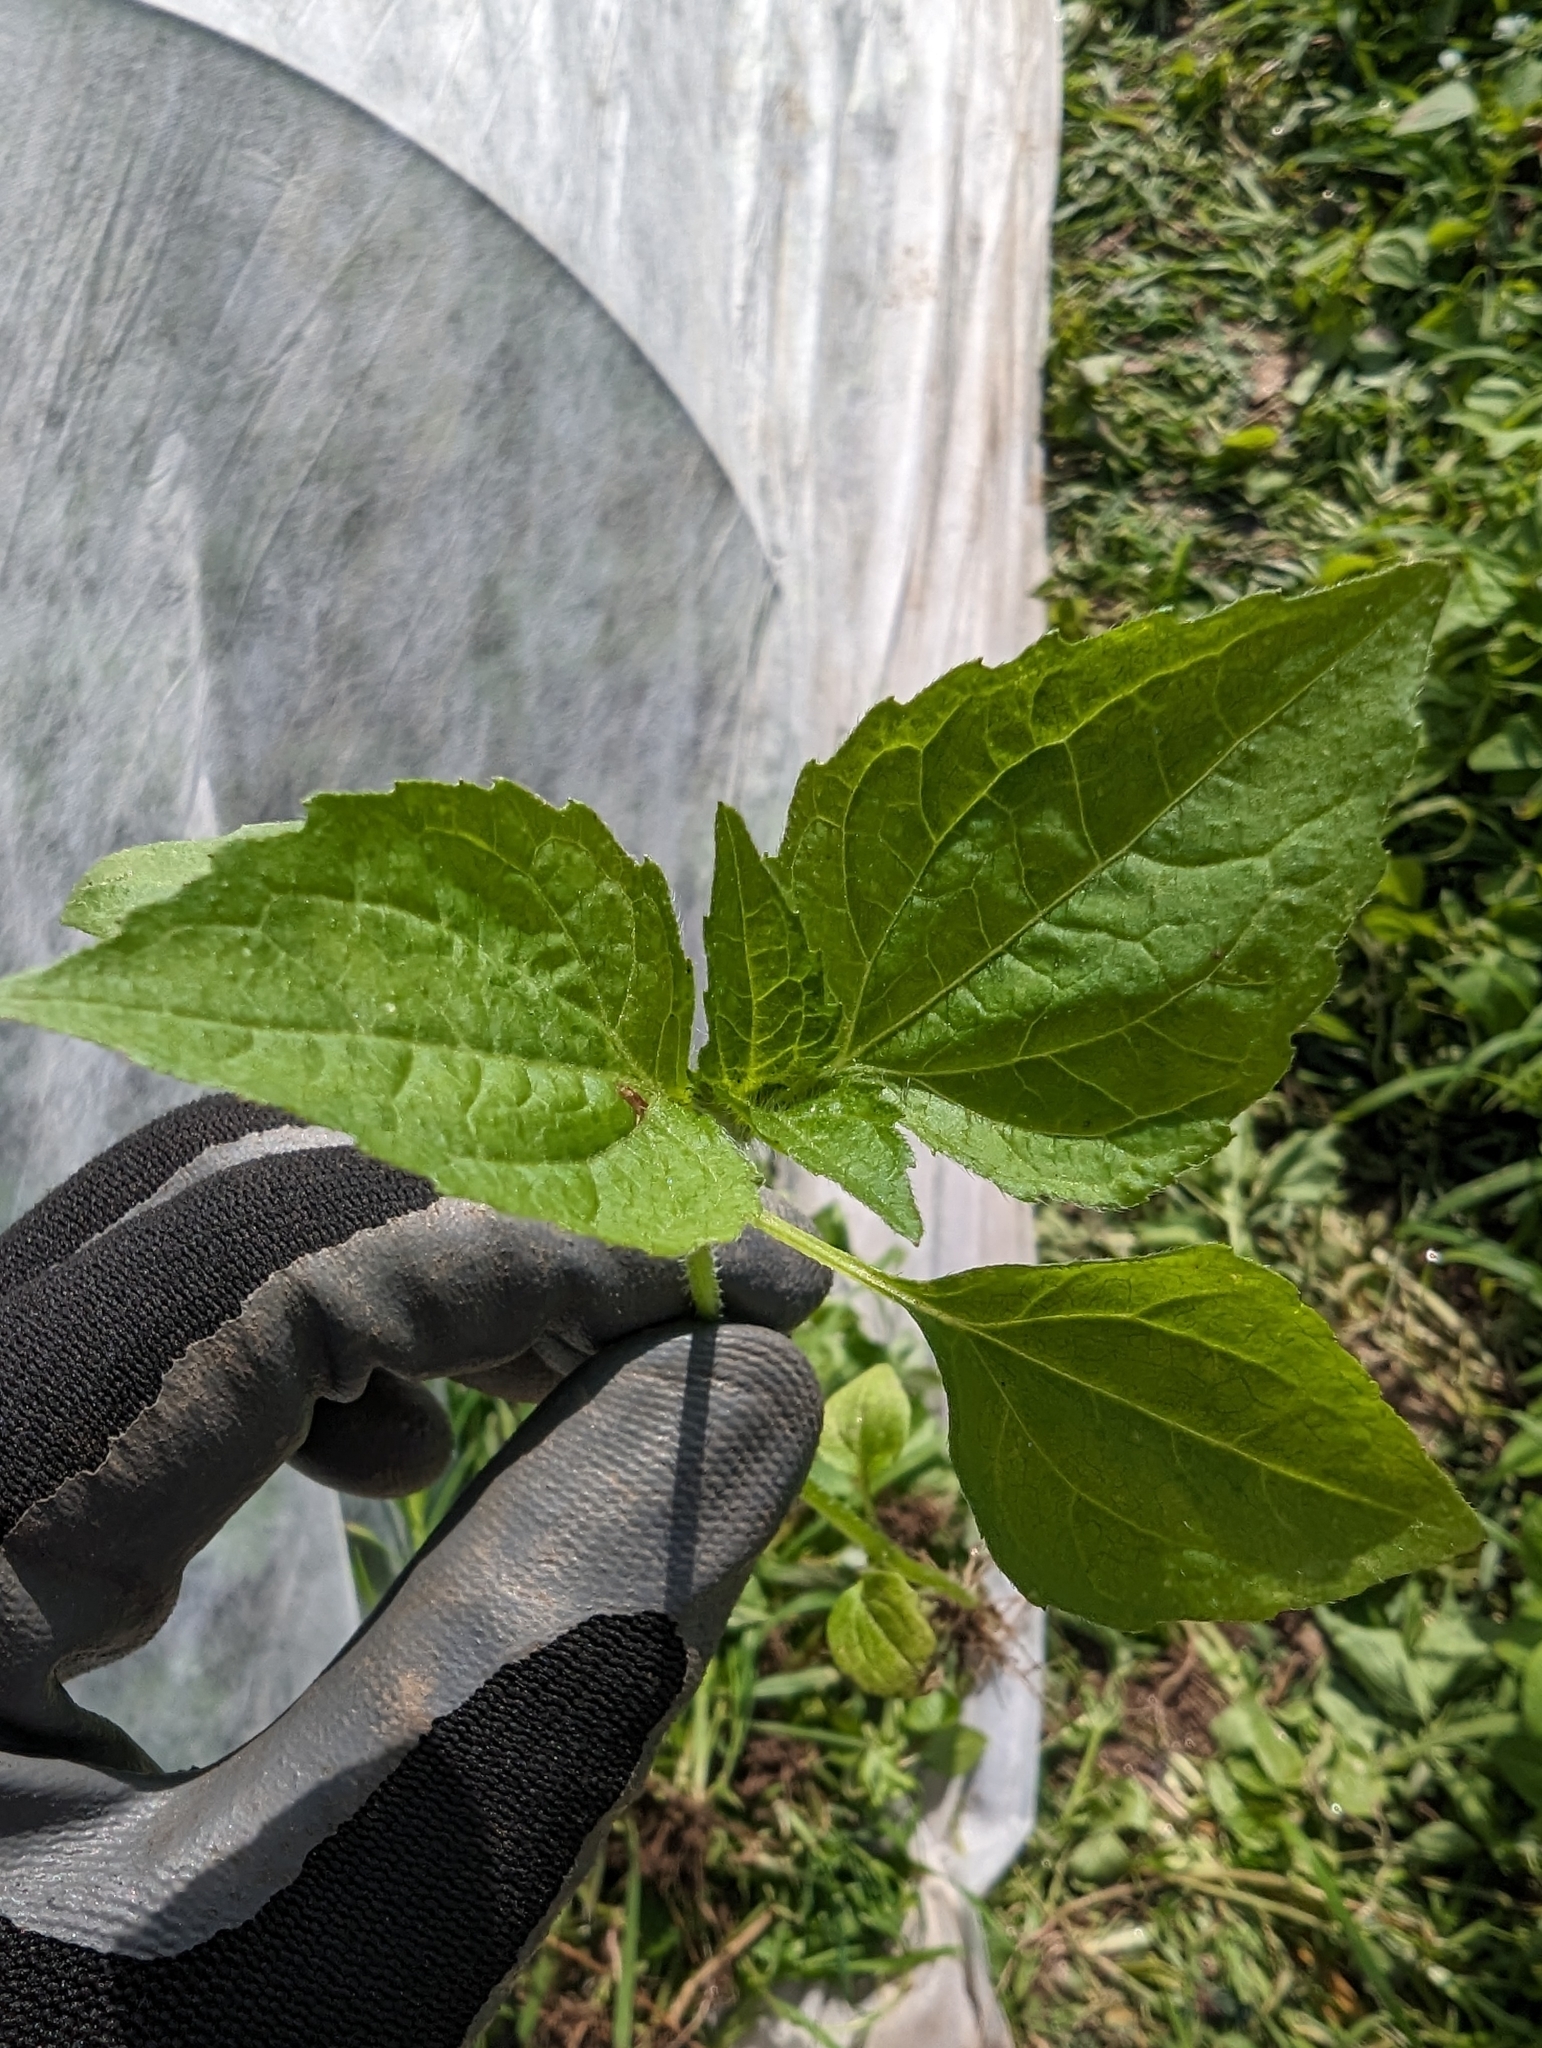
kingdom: Plantae
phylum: Tracheophyta
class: Magnoliopsida
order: Asterales
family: Asteraceae
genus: Galinsoga
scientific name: Galinsoga quadriradiata
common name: Shaggy soldier
